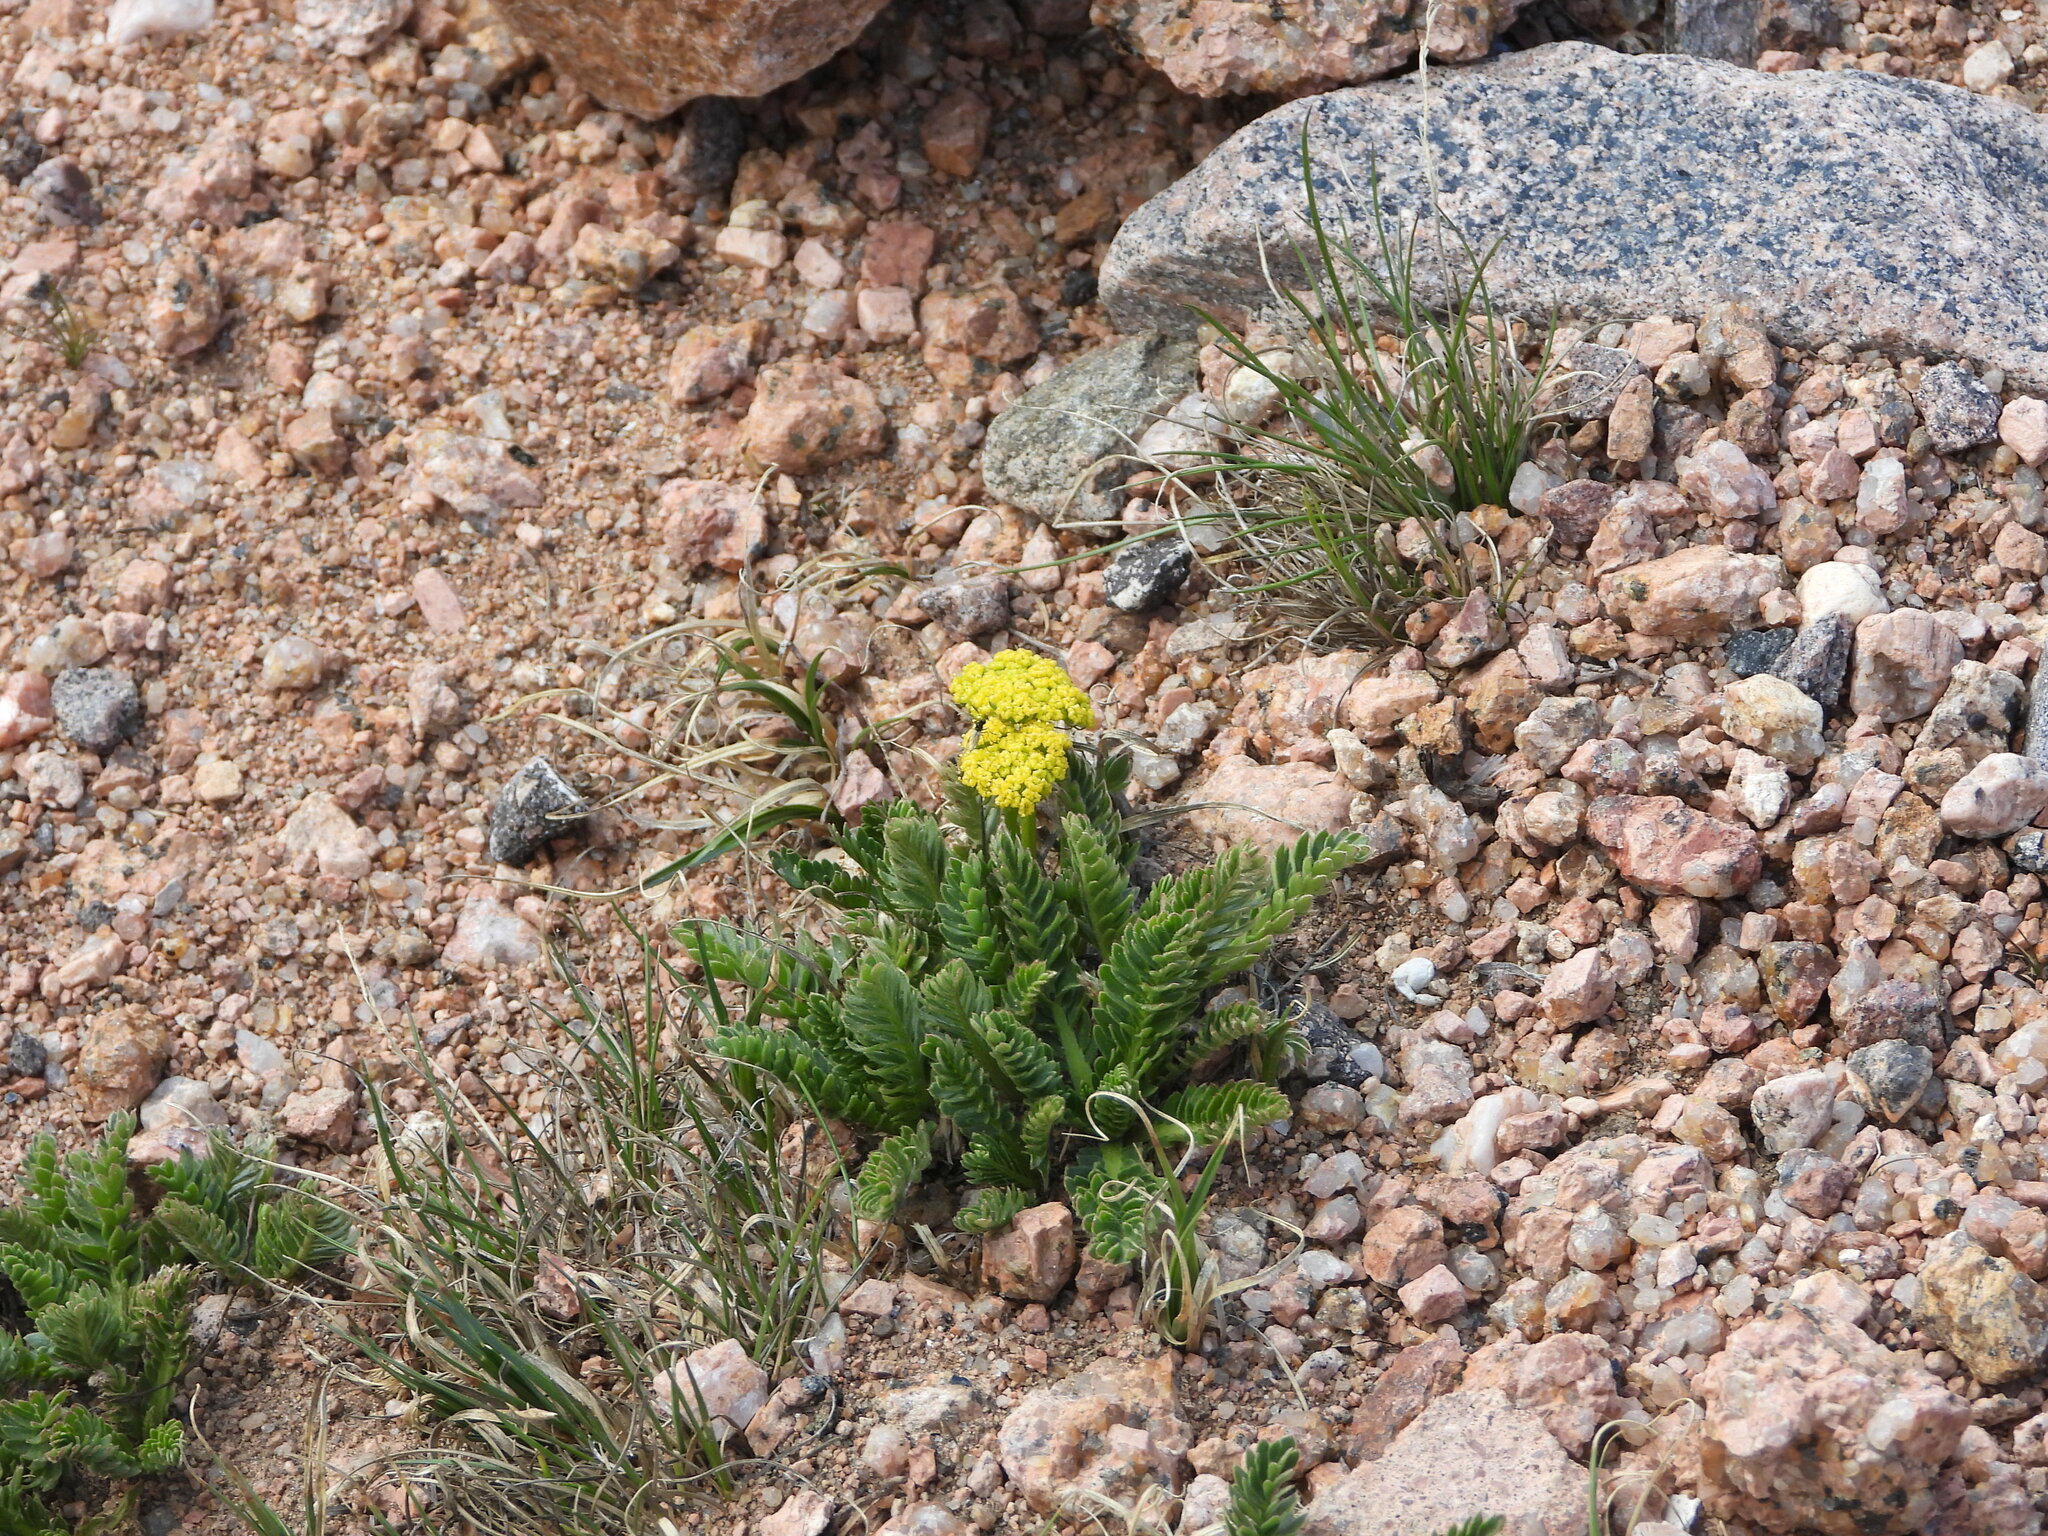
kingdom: Plantae
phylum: Tracheophyta
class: Magnoliopsida
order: Rosales
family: Rosaceae
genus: Geum
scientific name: Geum rossii
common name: Alpine avens
